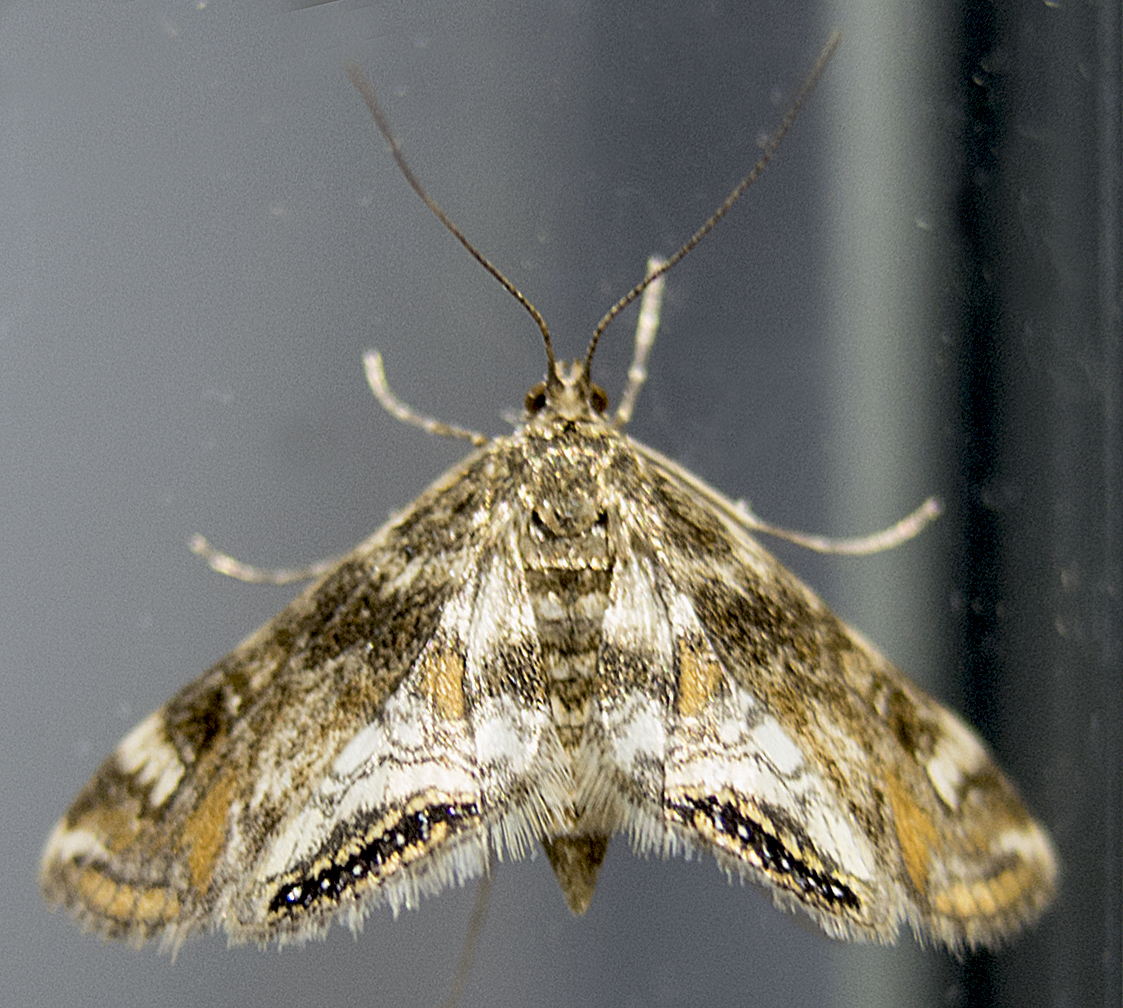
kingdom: Animalia
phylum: Arthropoda
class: Insecta
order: Lepidoptera
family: Crambidae
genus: Cataclysta
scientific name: Cataclysta lemnata
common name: Small china-mark
